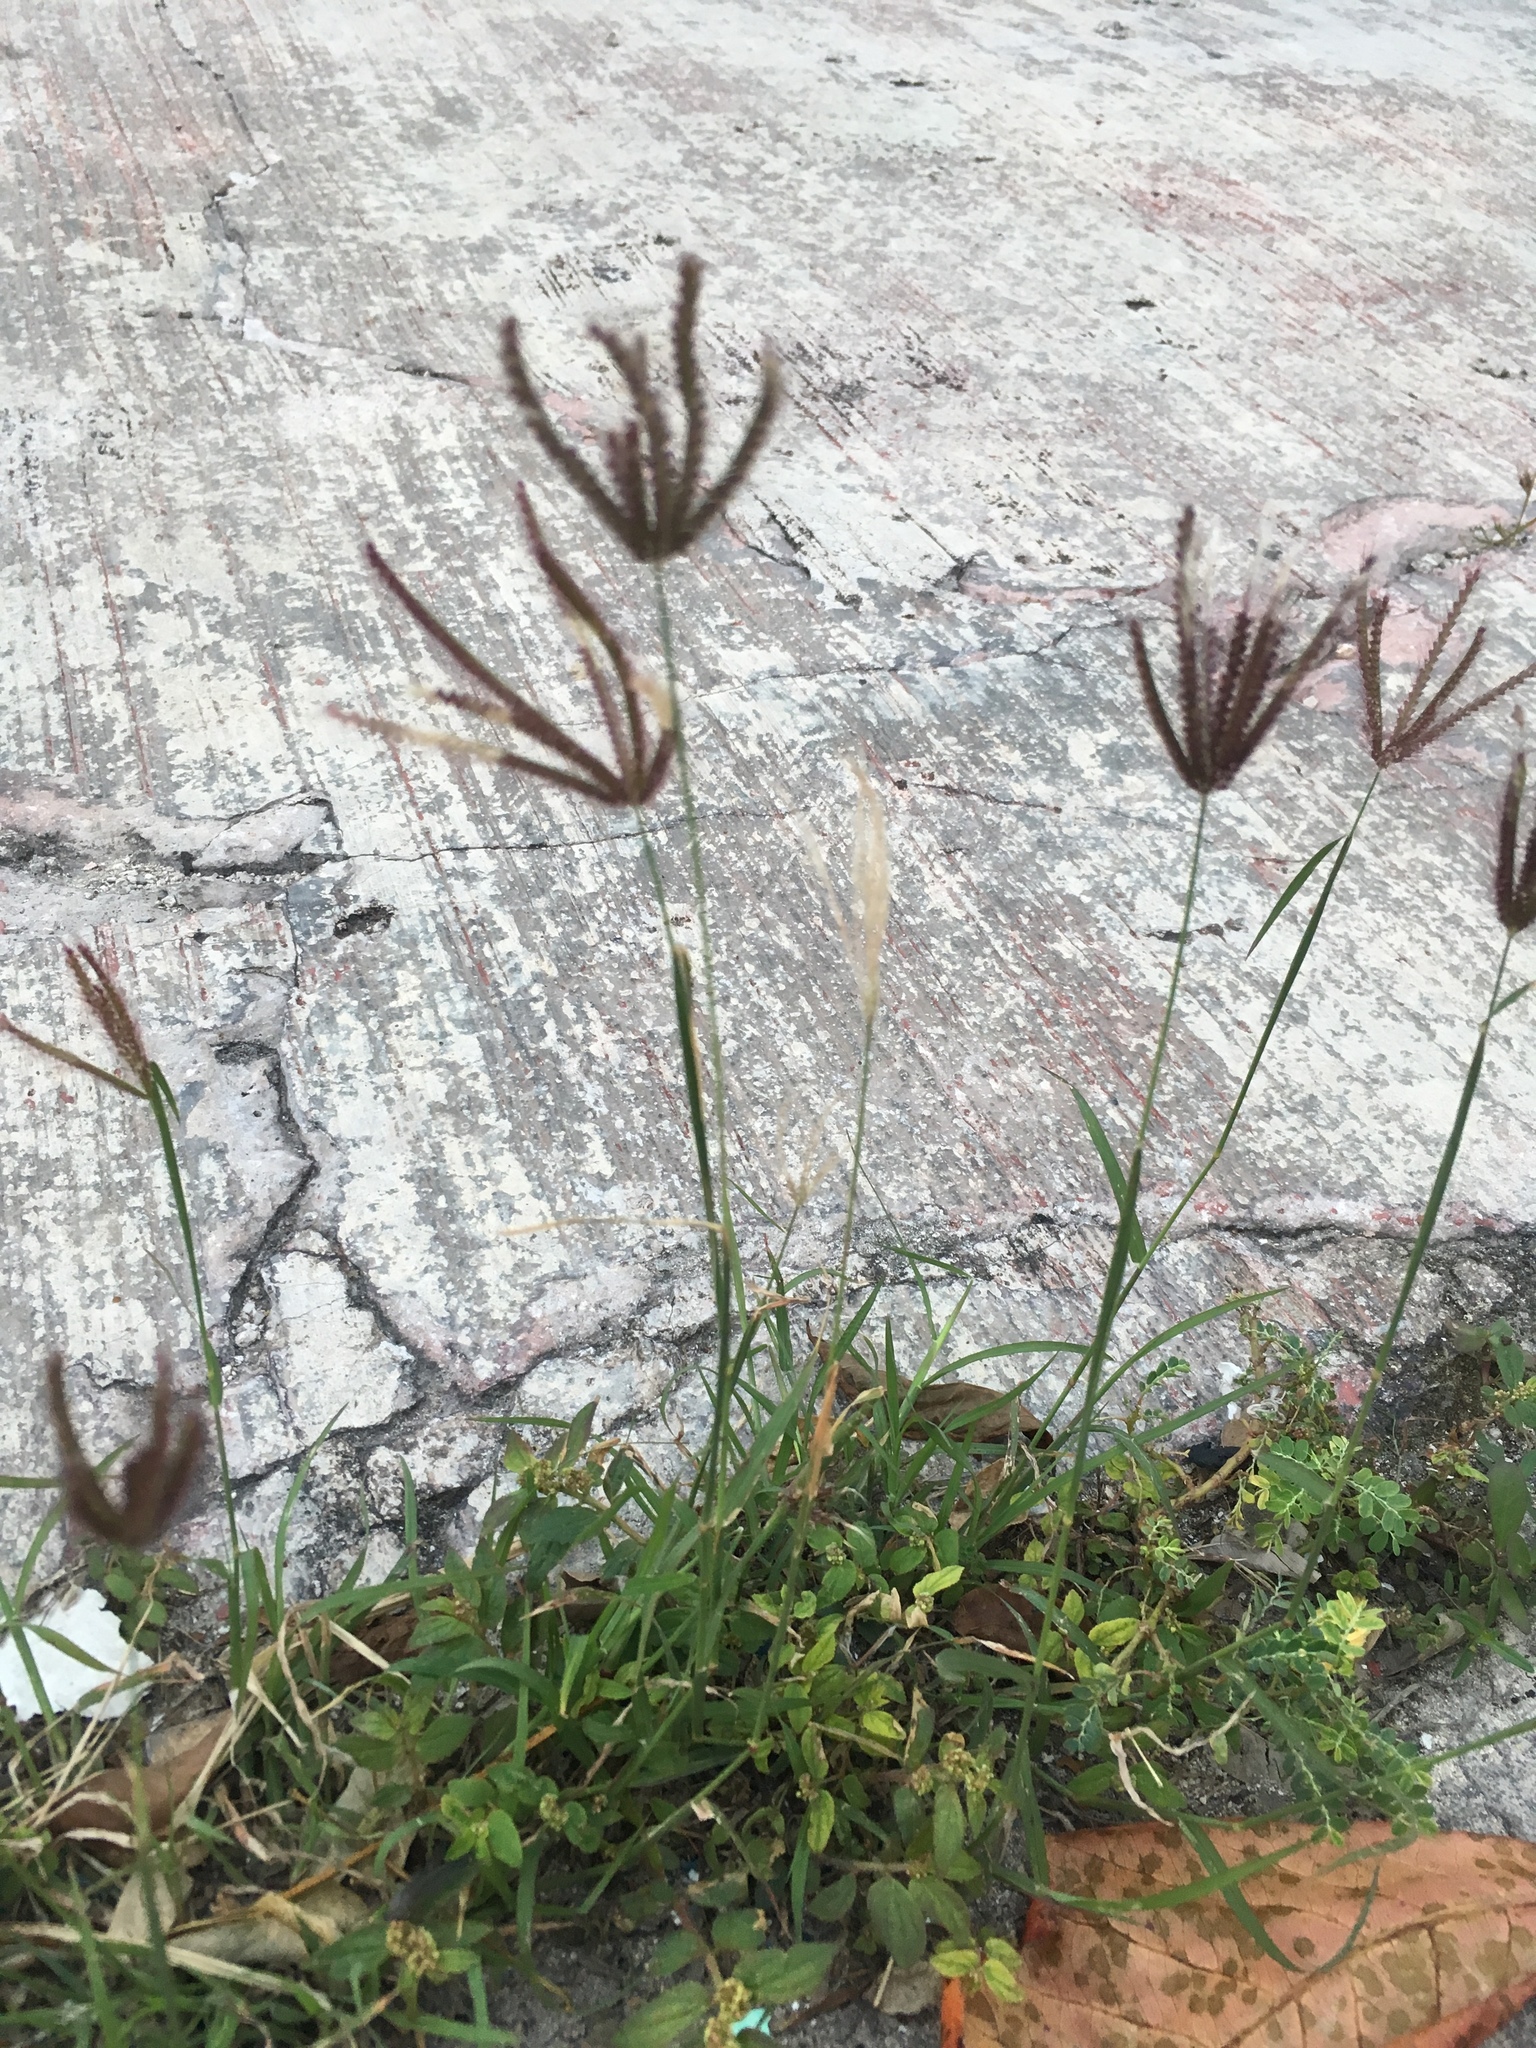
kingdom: Plantae
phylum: Tracheophyta
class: Liliopsida
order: Poales
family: Poaceae
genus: Chloris
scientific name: Chloris virgata
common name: Feathery rhodes-grass
